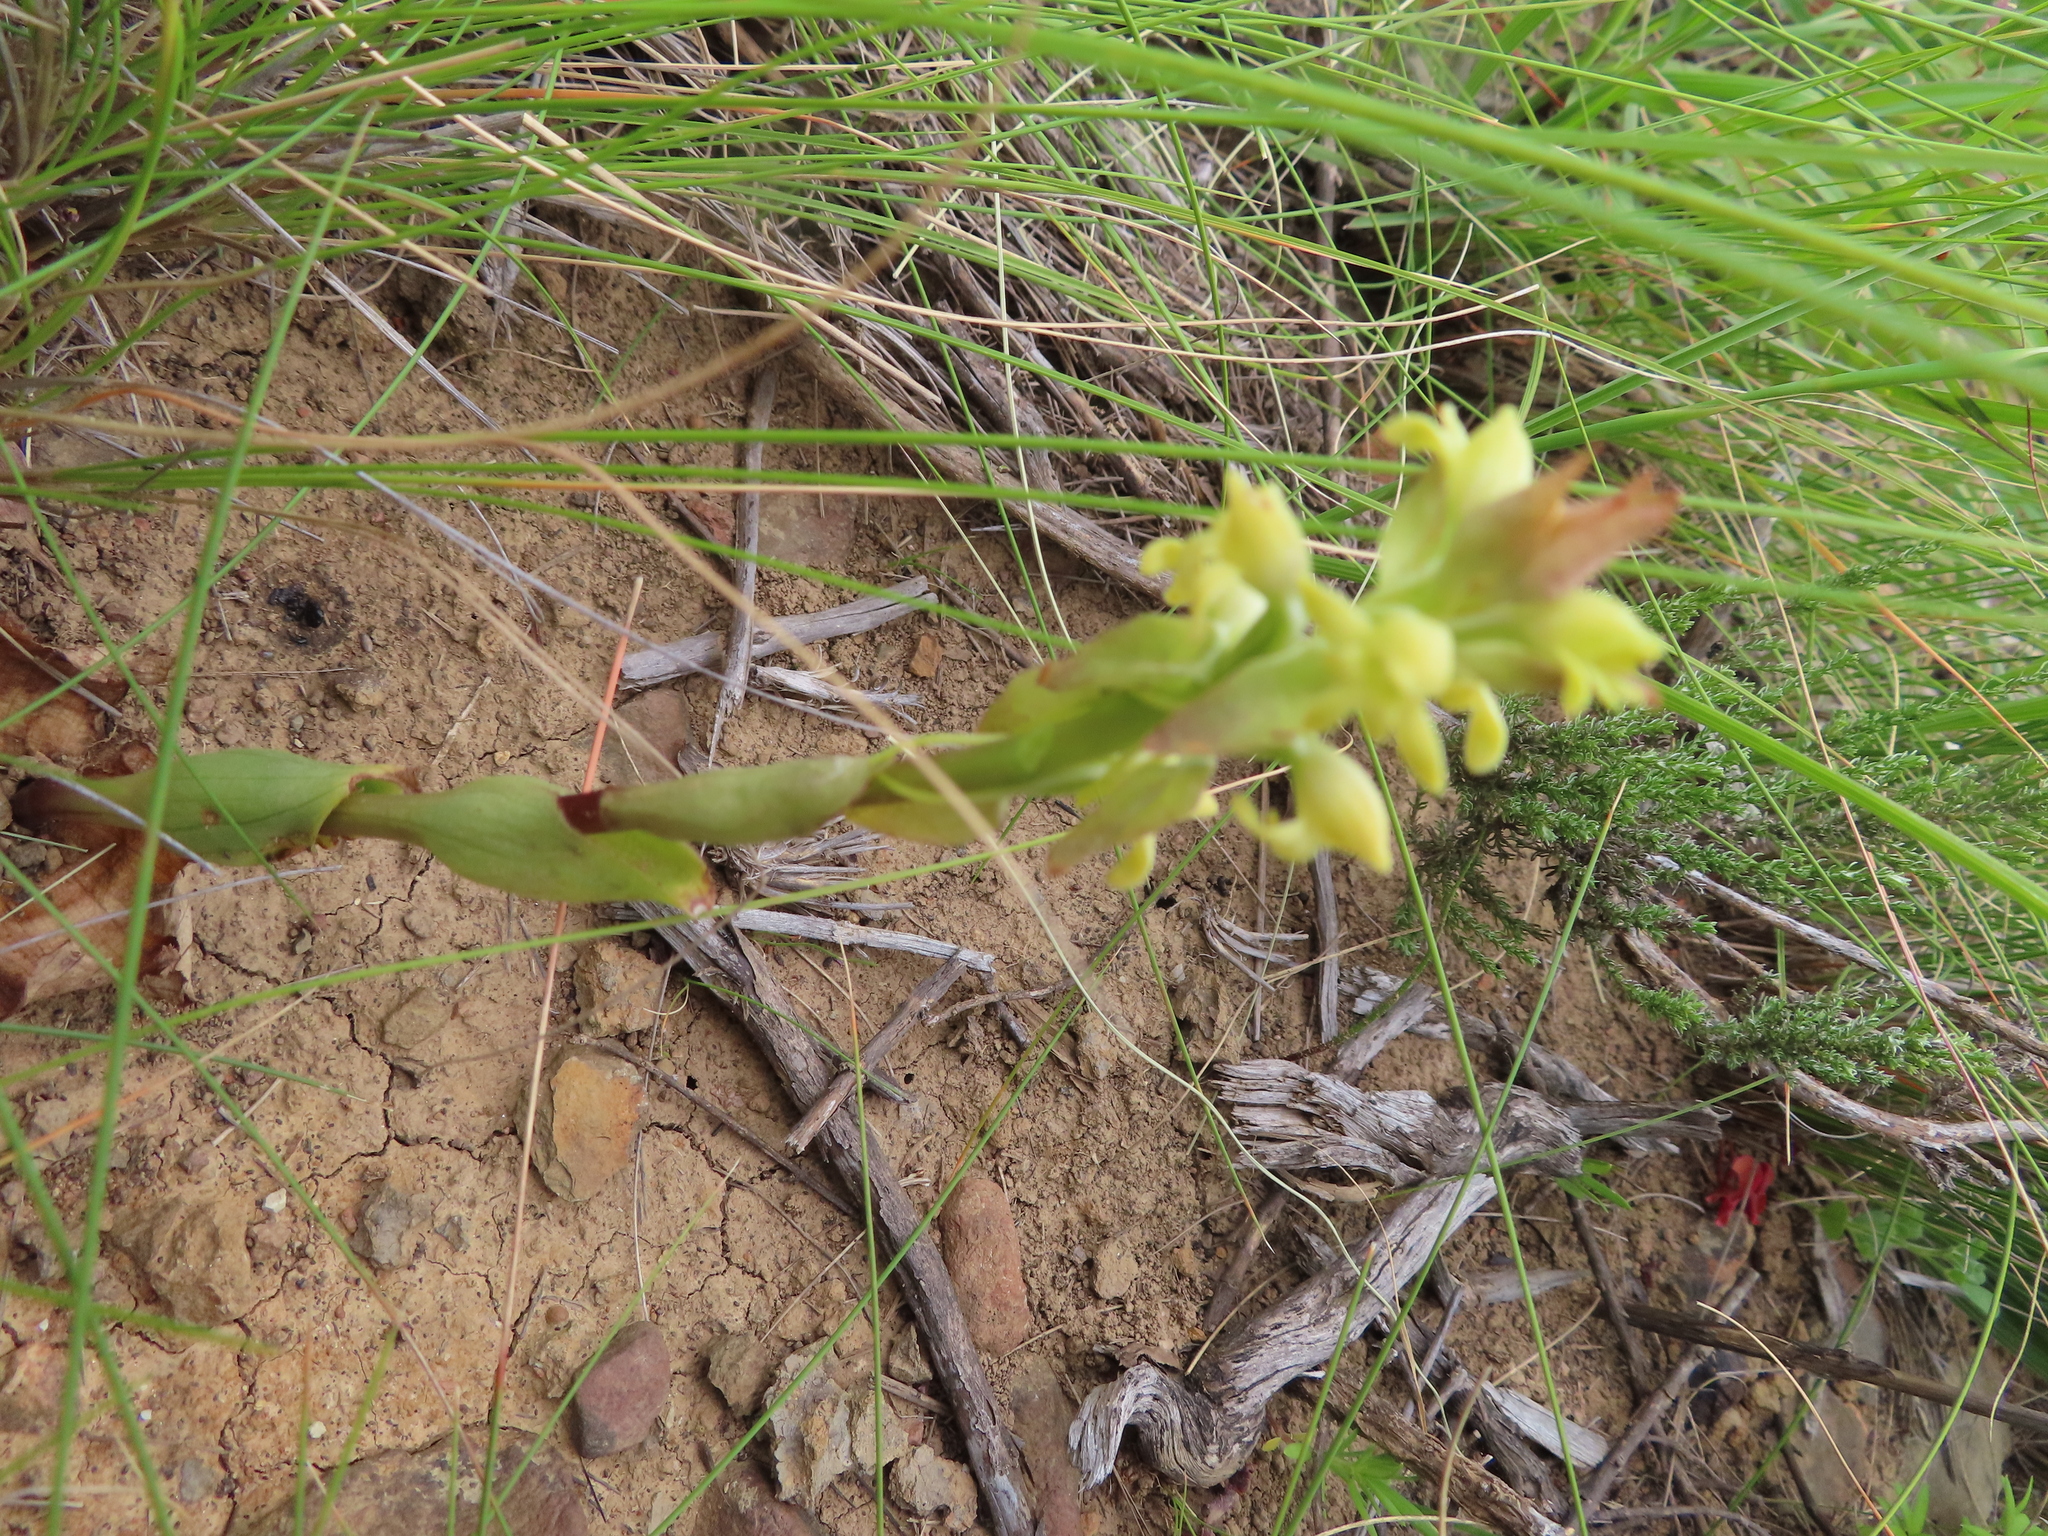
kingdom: Plantae
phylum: Tracheophyta
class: Liliopsida
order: Asparagales
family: Orchidaceae
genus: Satyrium
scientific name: Satyrium bicorne
